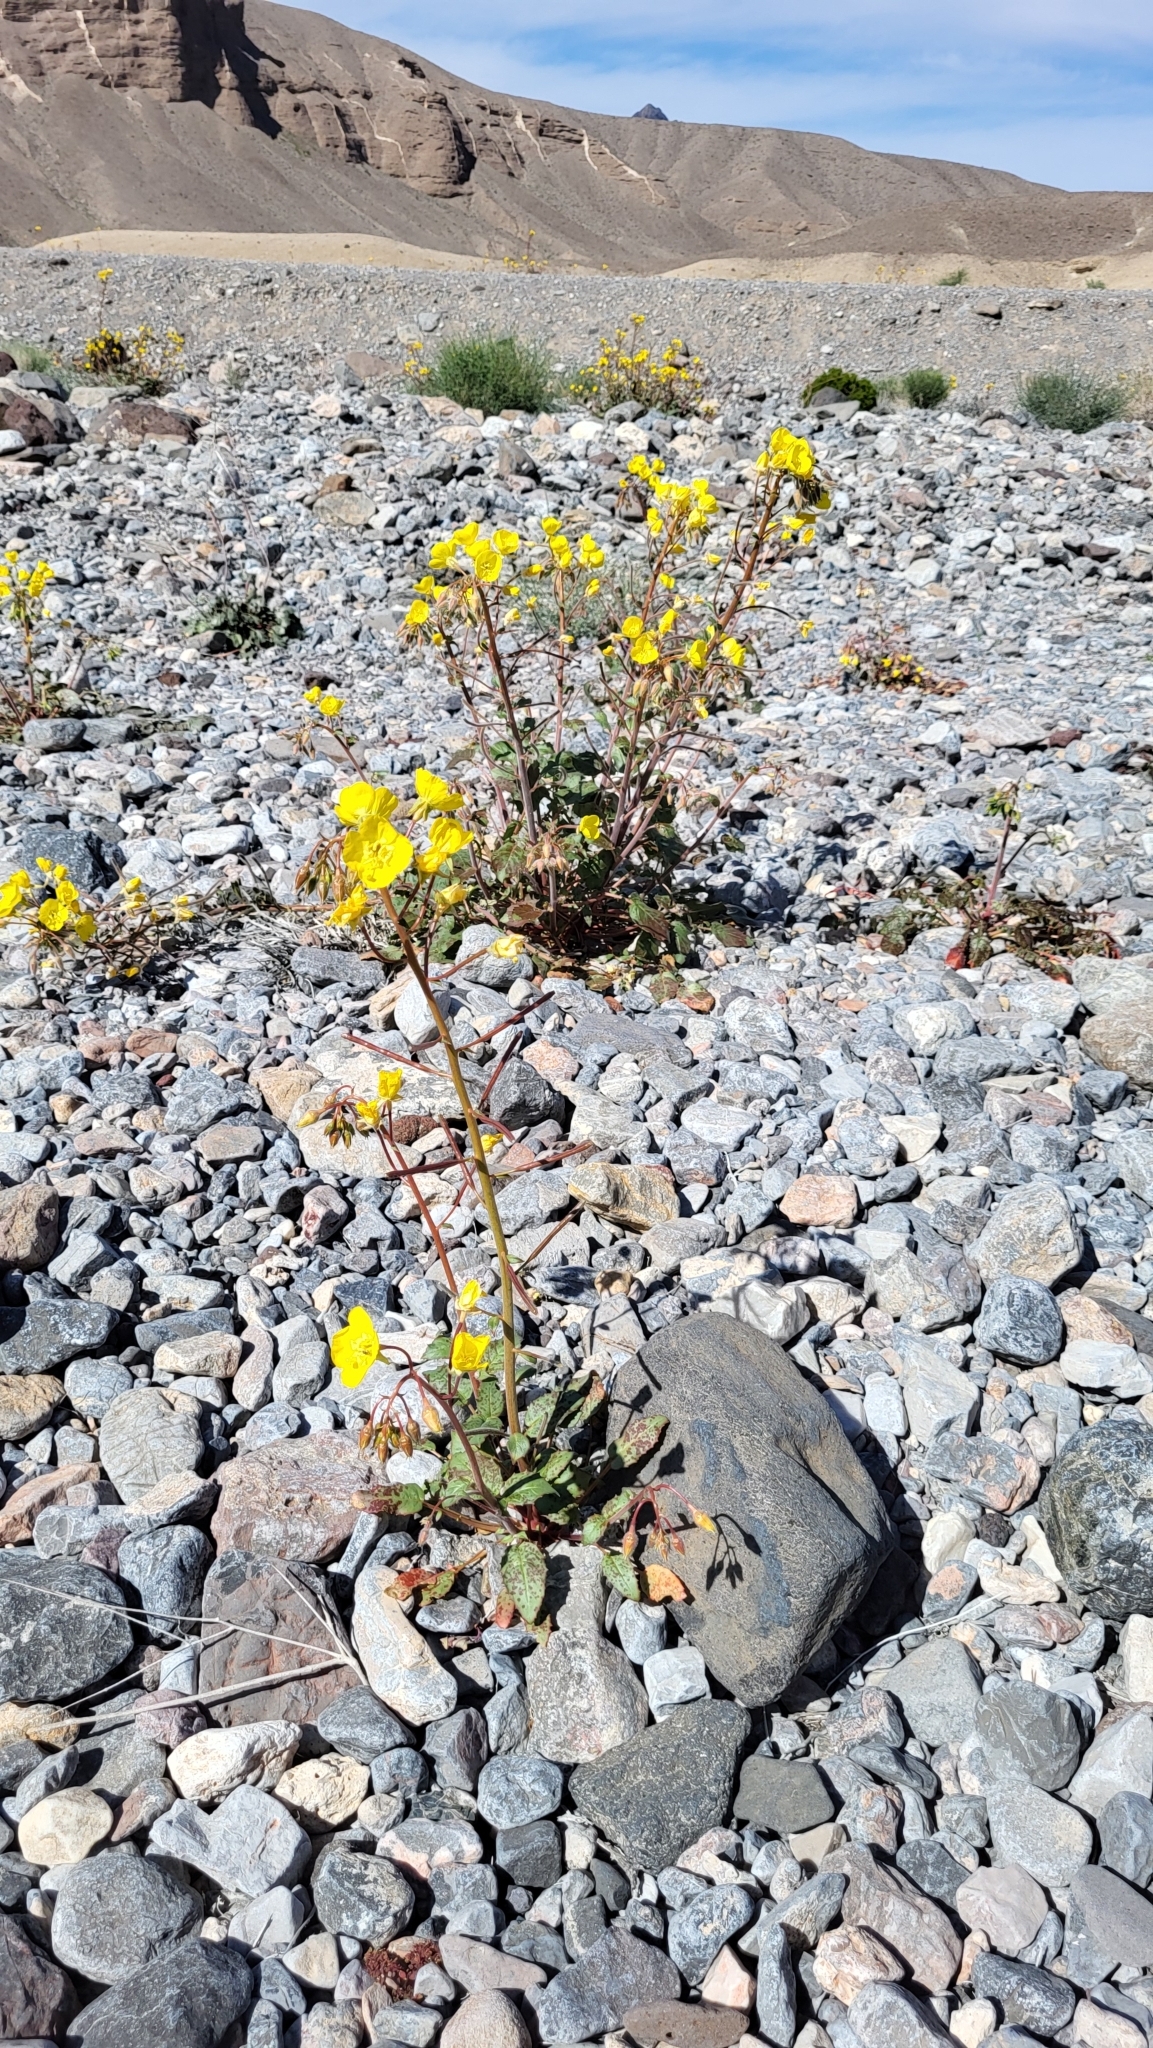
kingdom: Plantae
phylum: Tracheophyta
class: Magnoliopsida
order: Myrtales
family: Onagraceae
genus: Chylismia
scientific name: Chylismia brevipes
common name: Yellow cups
